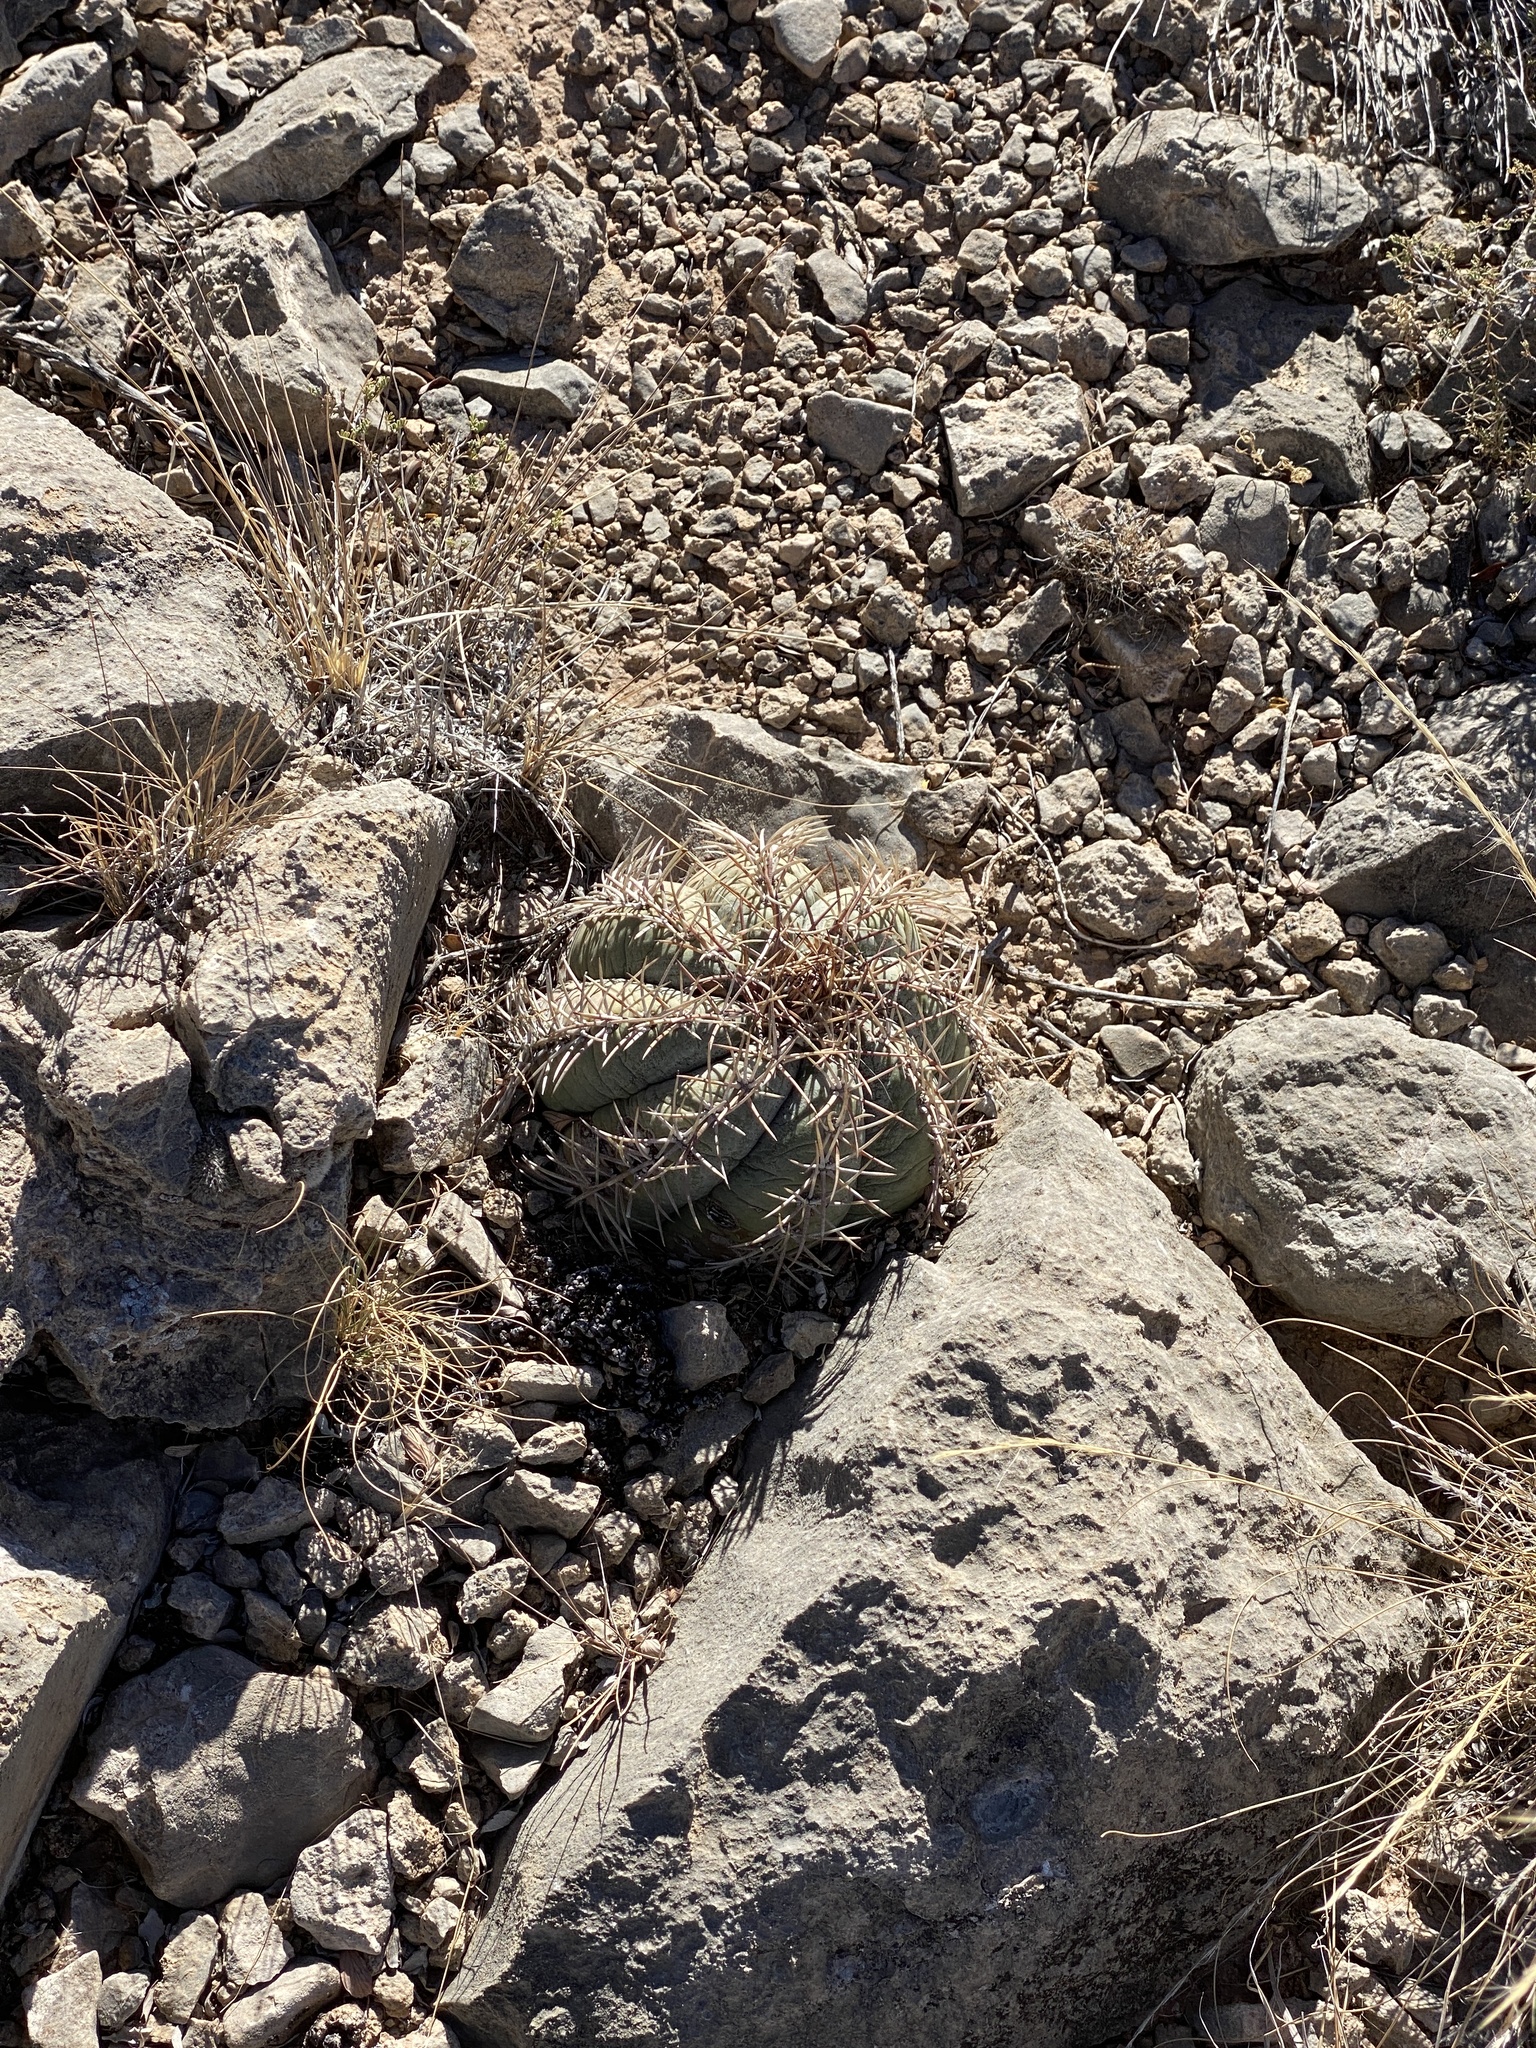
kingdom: Plantae
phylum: Tracheophyta
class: Magnoliopsida
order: Caryophyllales
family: Cactaceae
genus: Echinocactus
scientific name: Echinocactus horizonthalonius
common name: Devilshead
